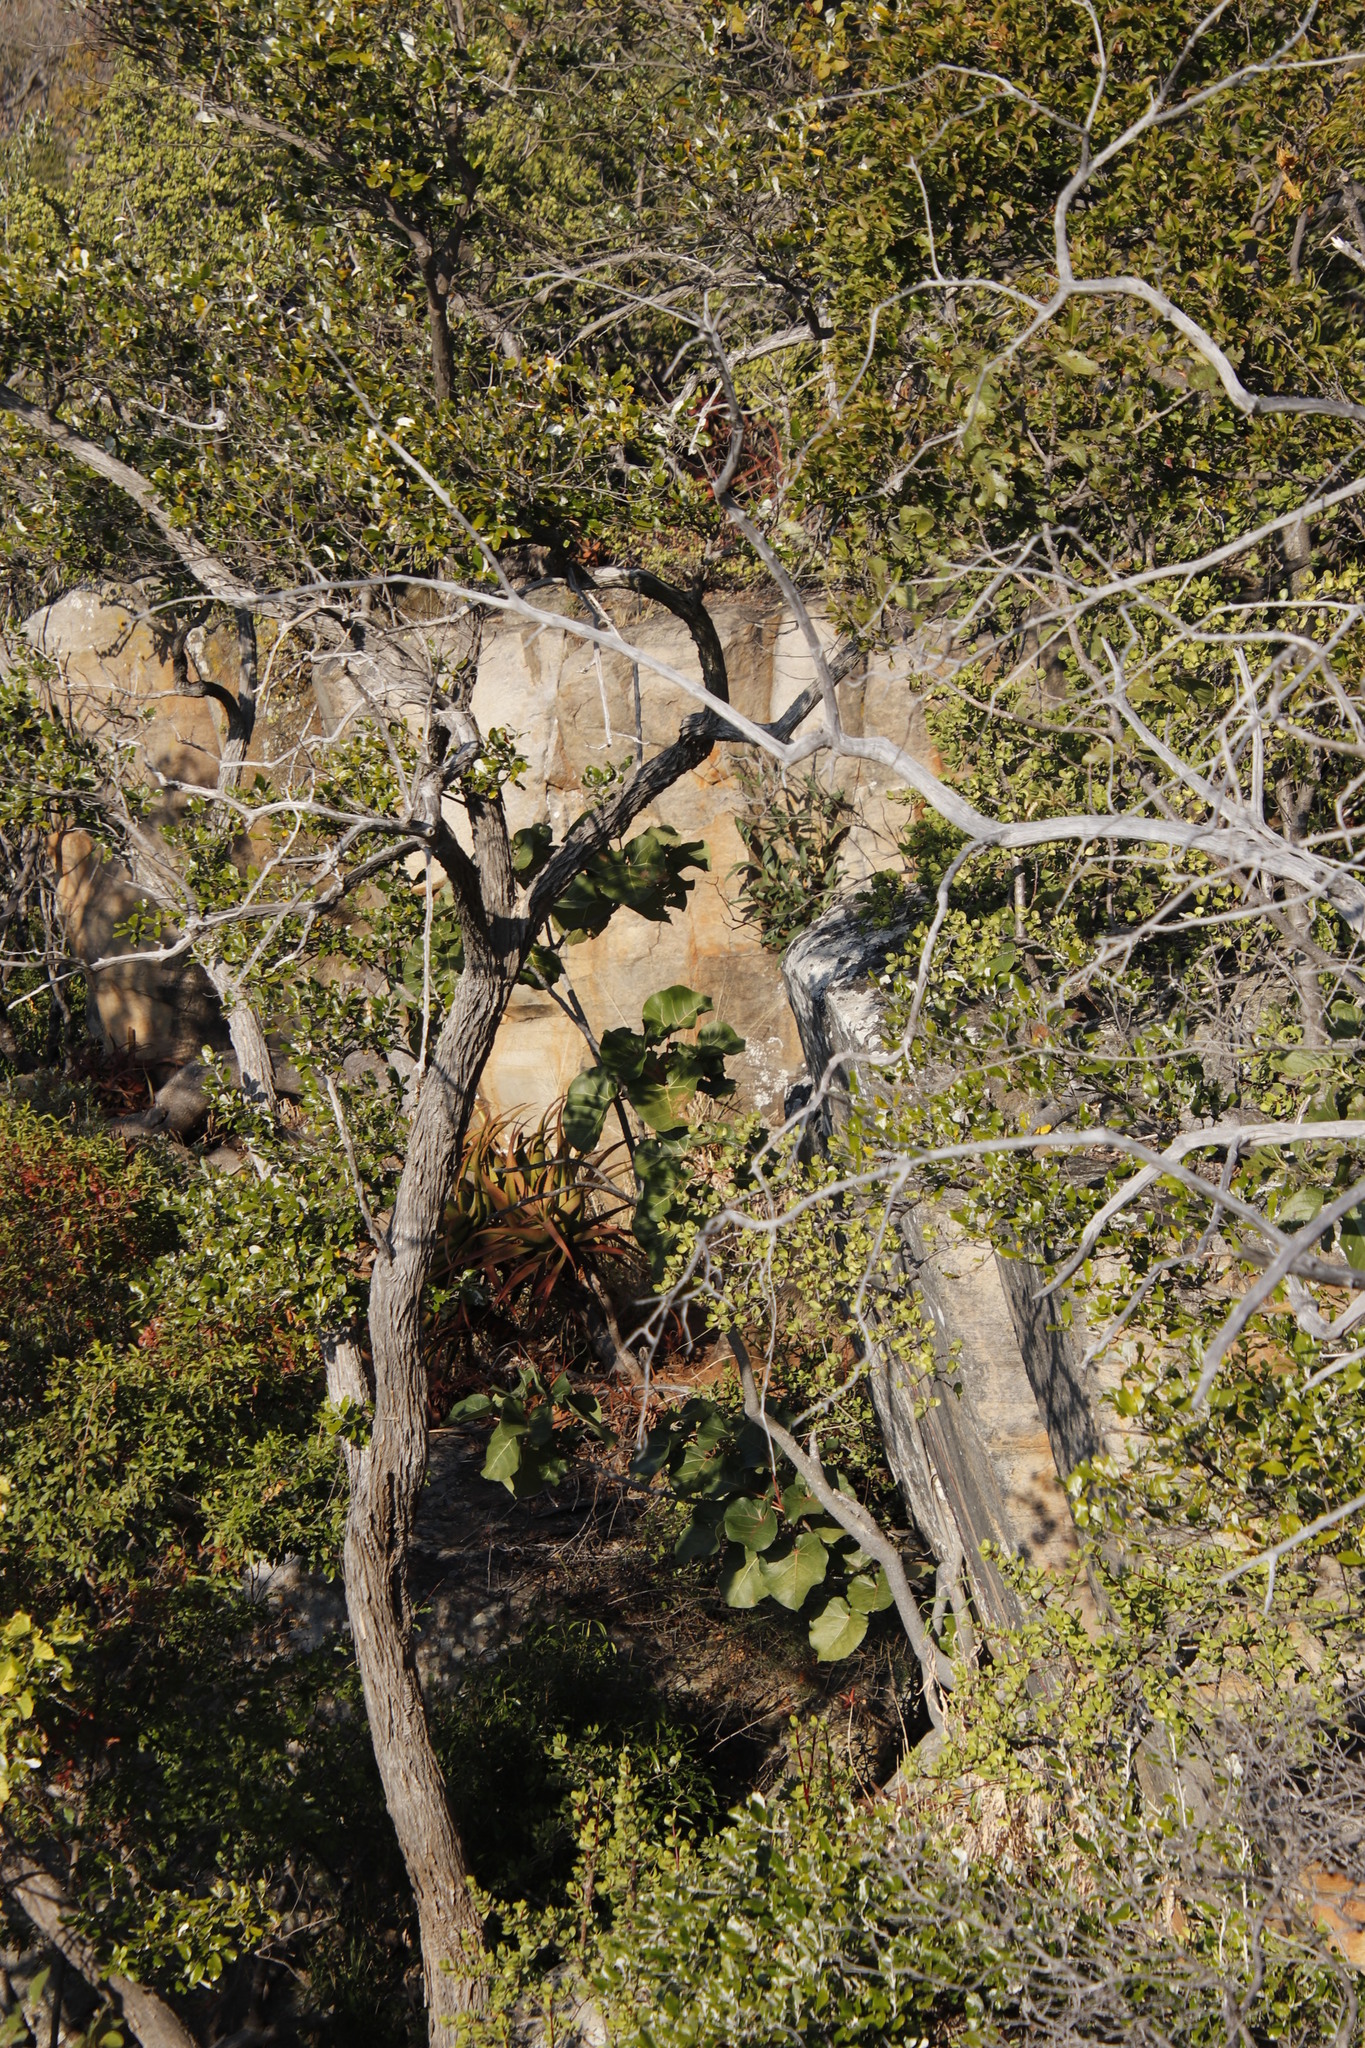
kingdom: Plantae
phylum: Tracheophyta
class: Magnoliopsida
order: Rosales
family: Moraceae
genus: Ficus
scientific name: Ficus abutilifolia
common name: Large-leaved rock fig
